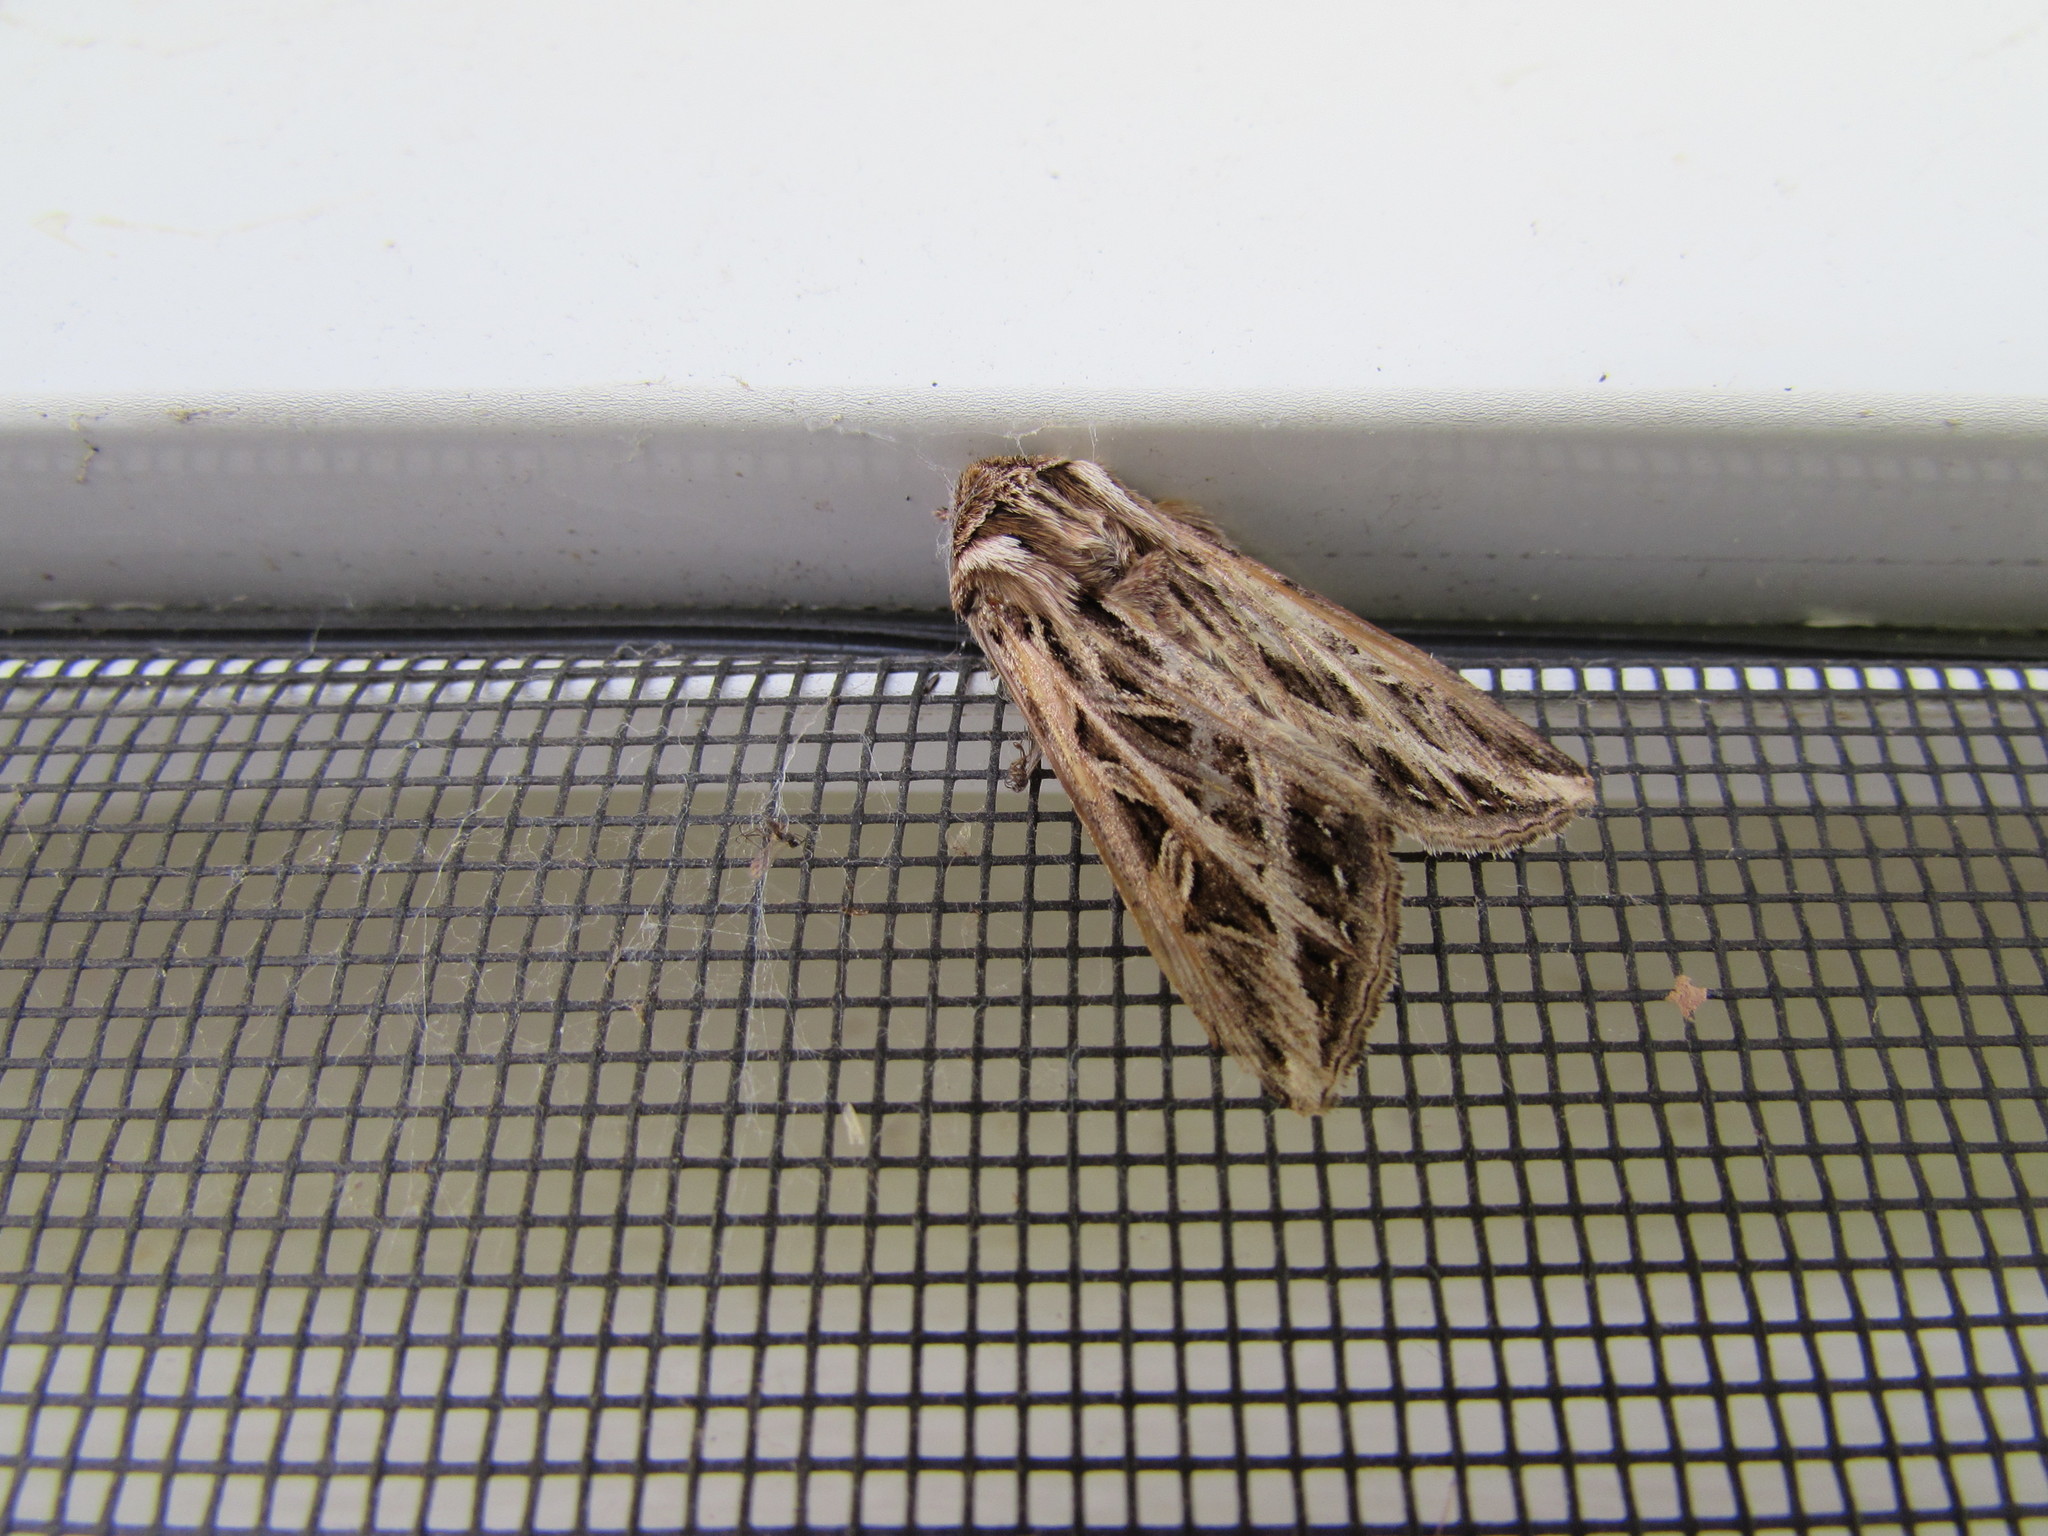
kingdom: Animalia
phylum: Arthropoda
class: Insecta
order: Lepidoptera
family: Noctuidae
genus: Dargida
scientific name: Dargida procinctus
